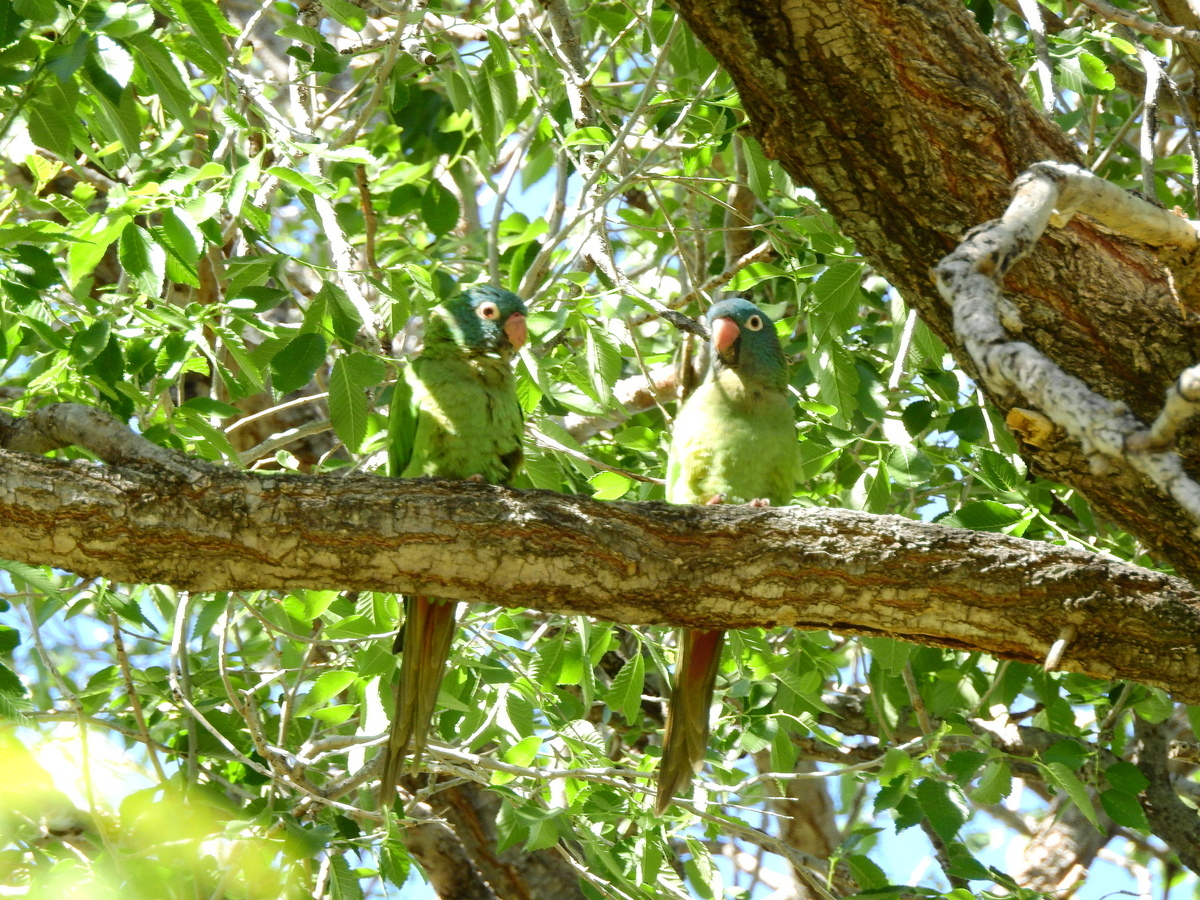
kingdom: Animalia
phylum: Chordata
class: Aves
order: Psittaciformes
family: Psittacidae
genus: Aratinga
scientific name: Aratinga acuticaudata
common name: Blue-crowned parakeet
